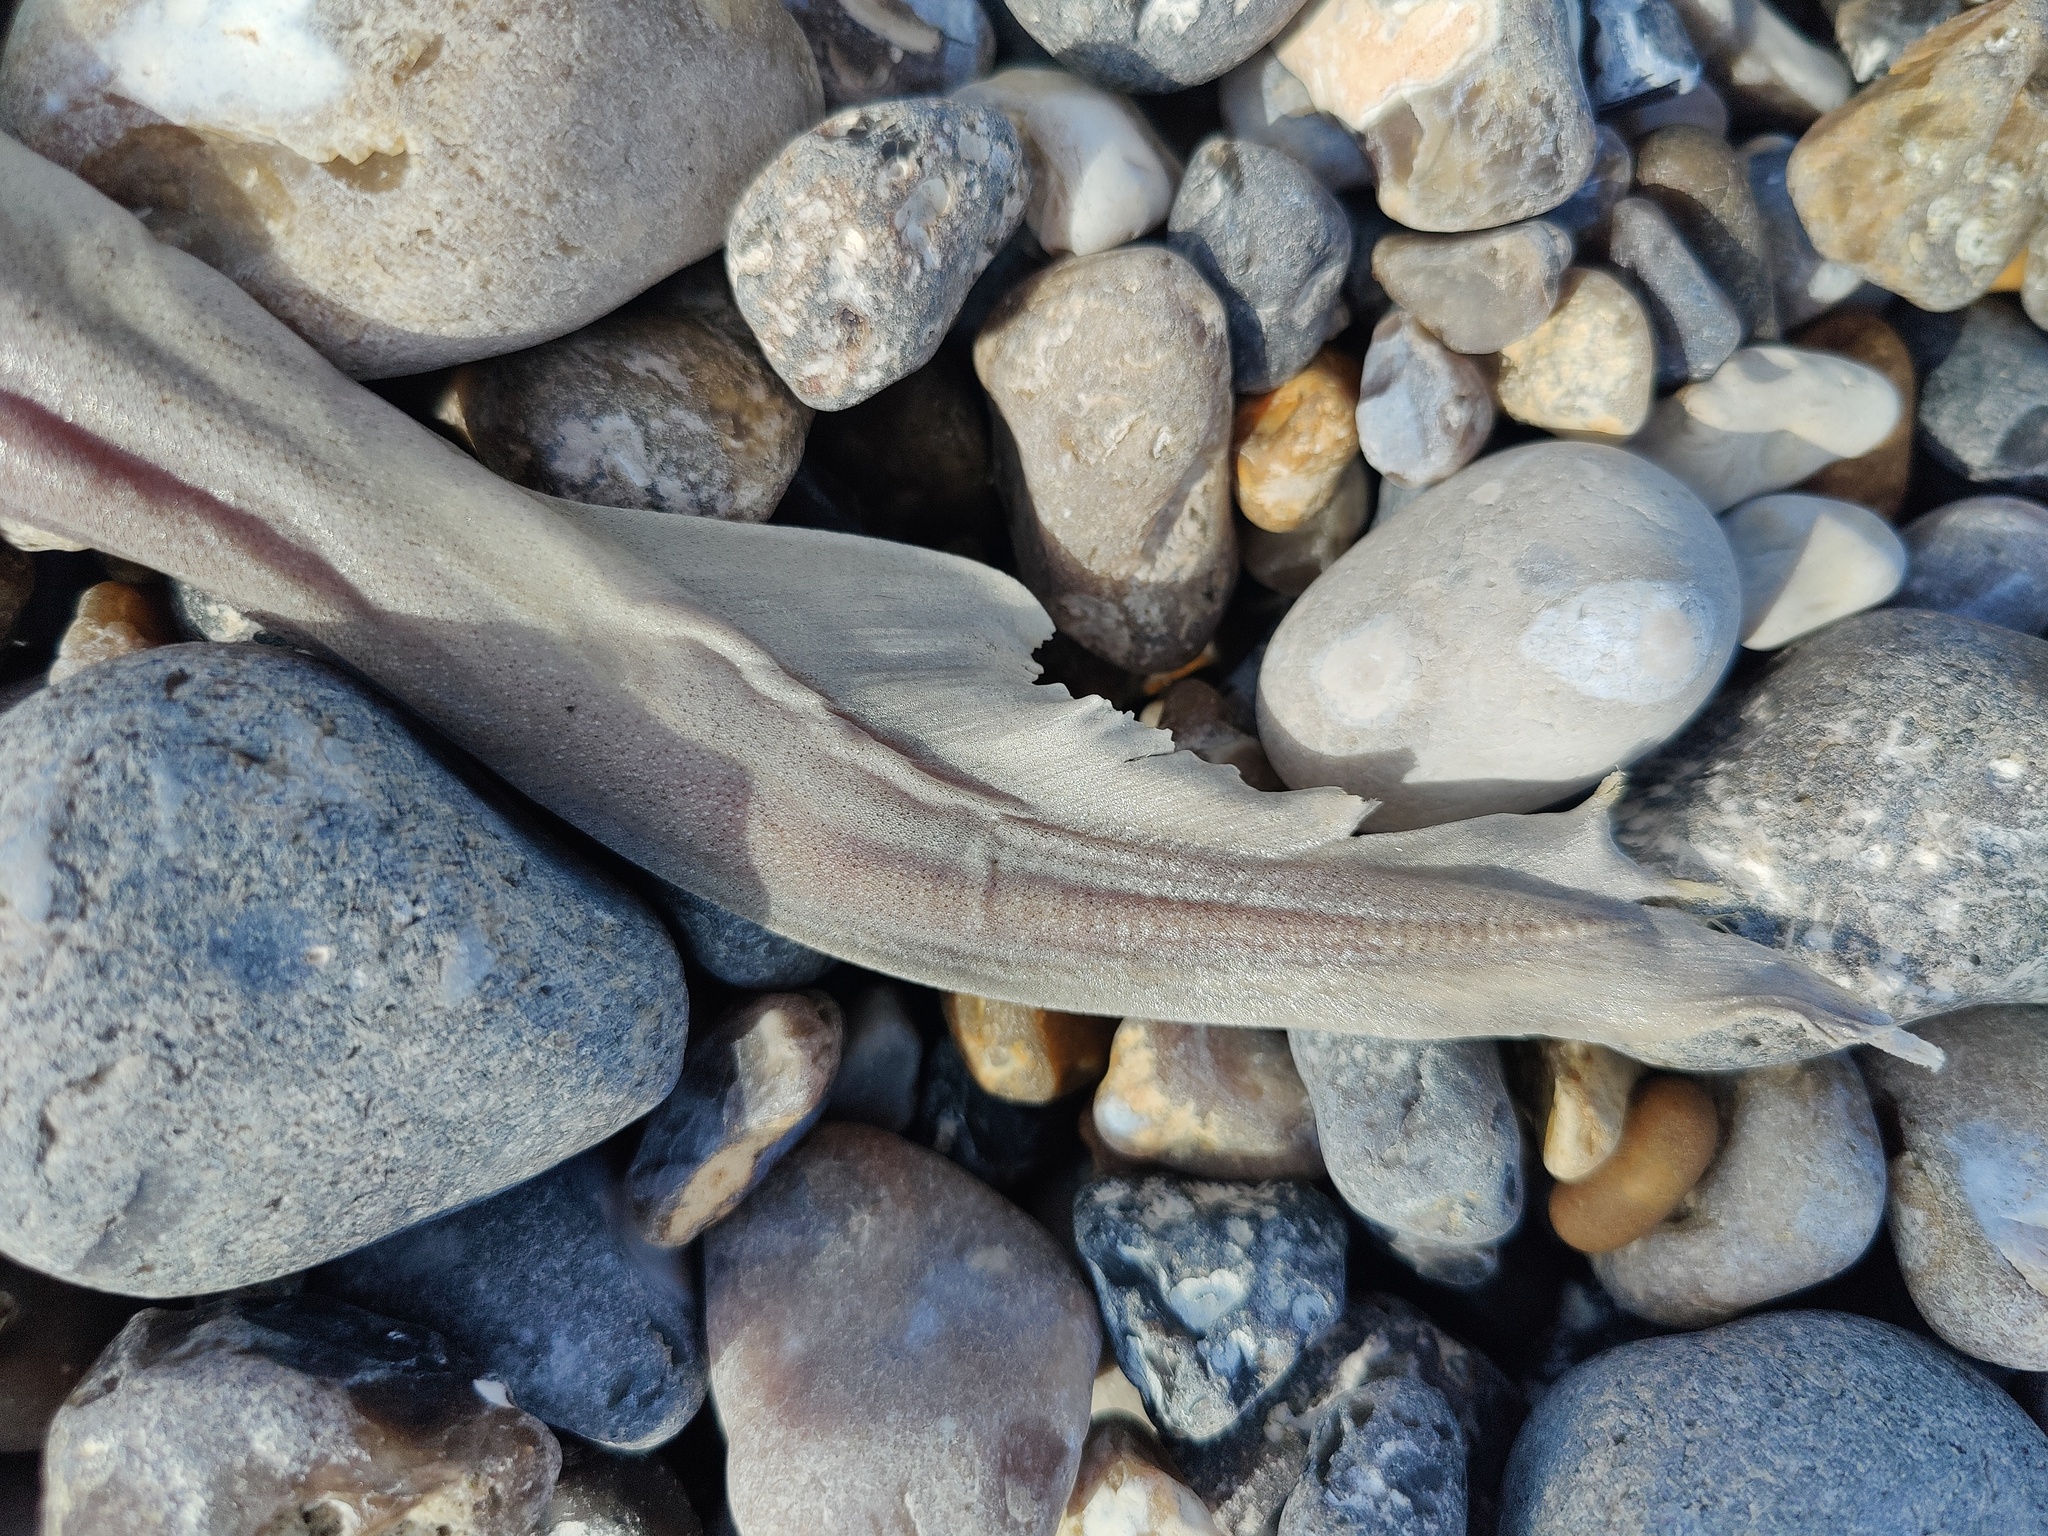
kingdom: Animalia
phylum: Chordata
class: Elasmobranchii
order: Carcharhiniformes
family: Triakidae
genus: Mustelus
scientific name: Mustelus mustelus
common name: Smooth-hound
